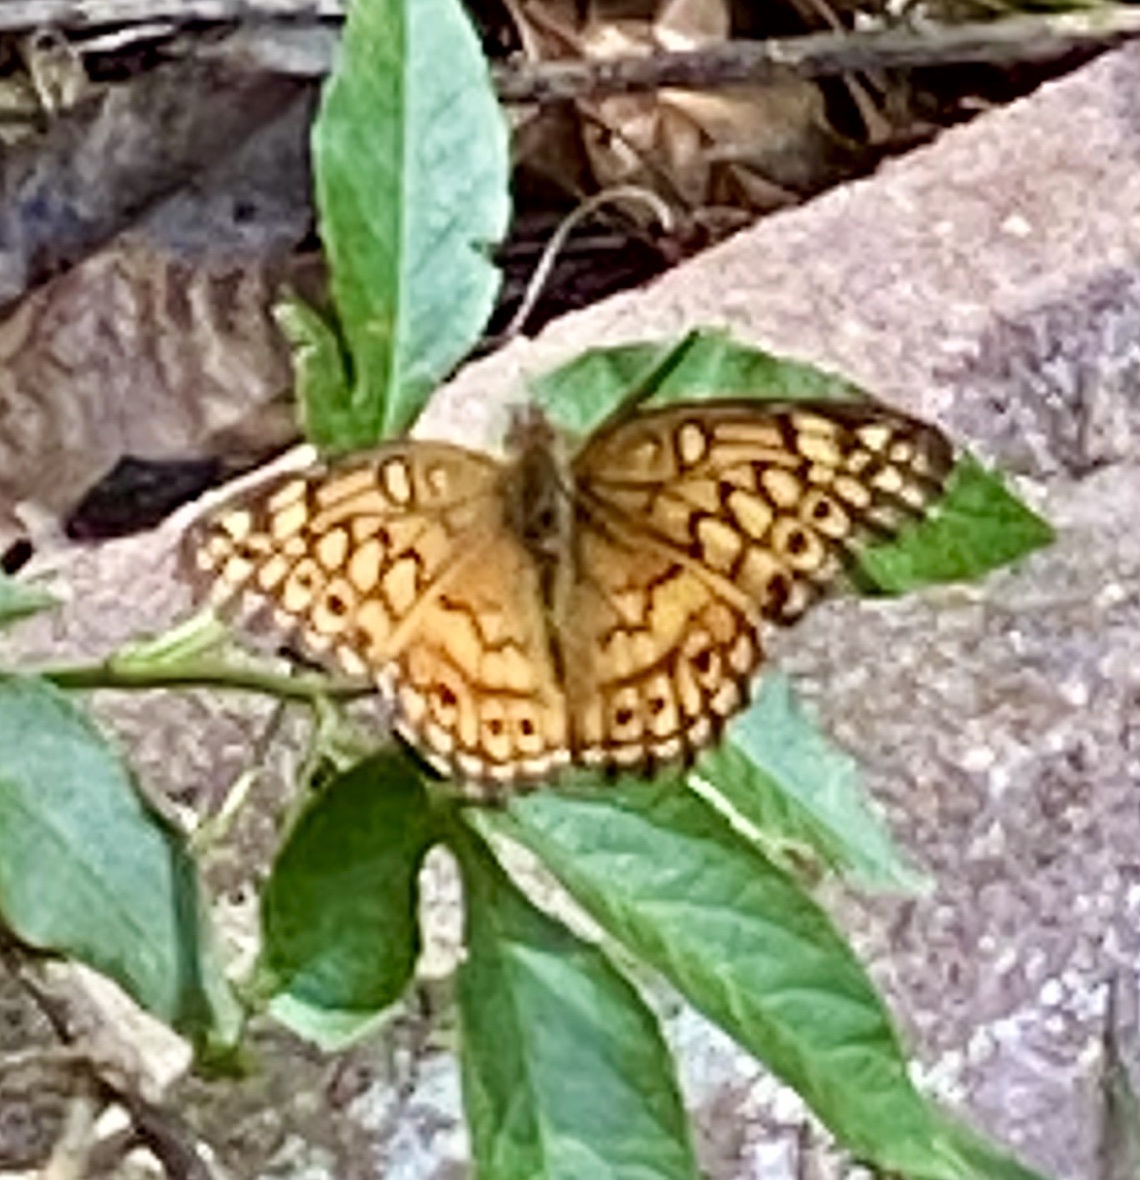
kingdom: Animalia
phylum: Arthropoda
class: Insecta
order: Lepidoptera
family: Nymphalidae
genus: Euptoieta
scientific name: Euptoieta claudia
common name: Variegated fritillary
